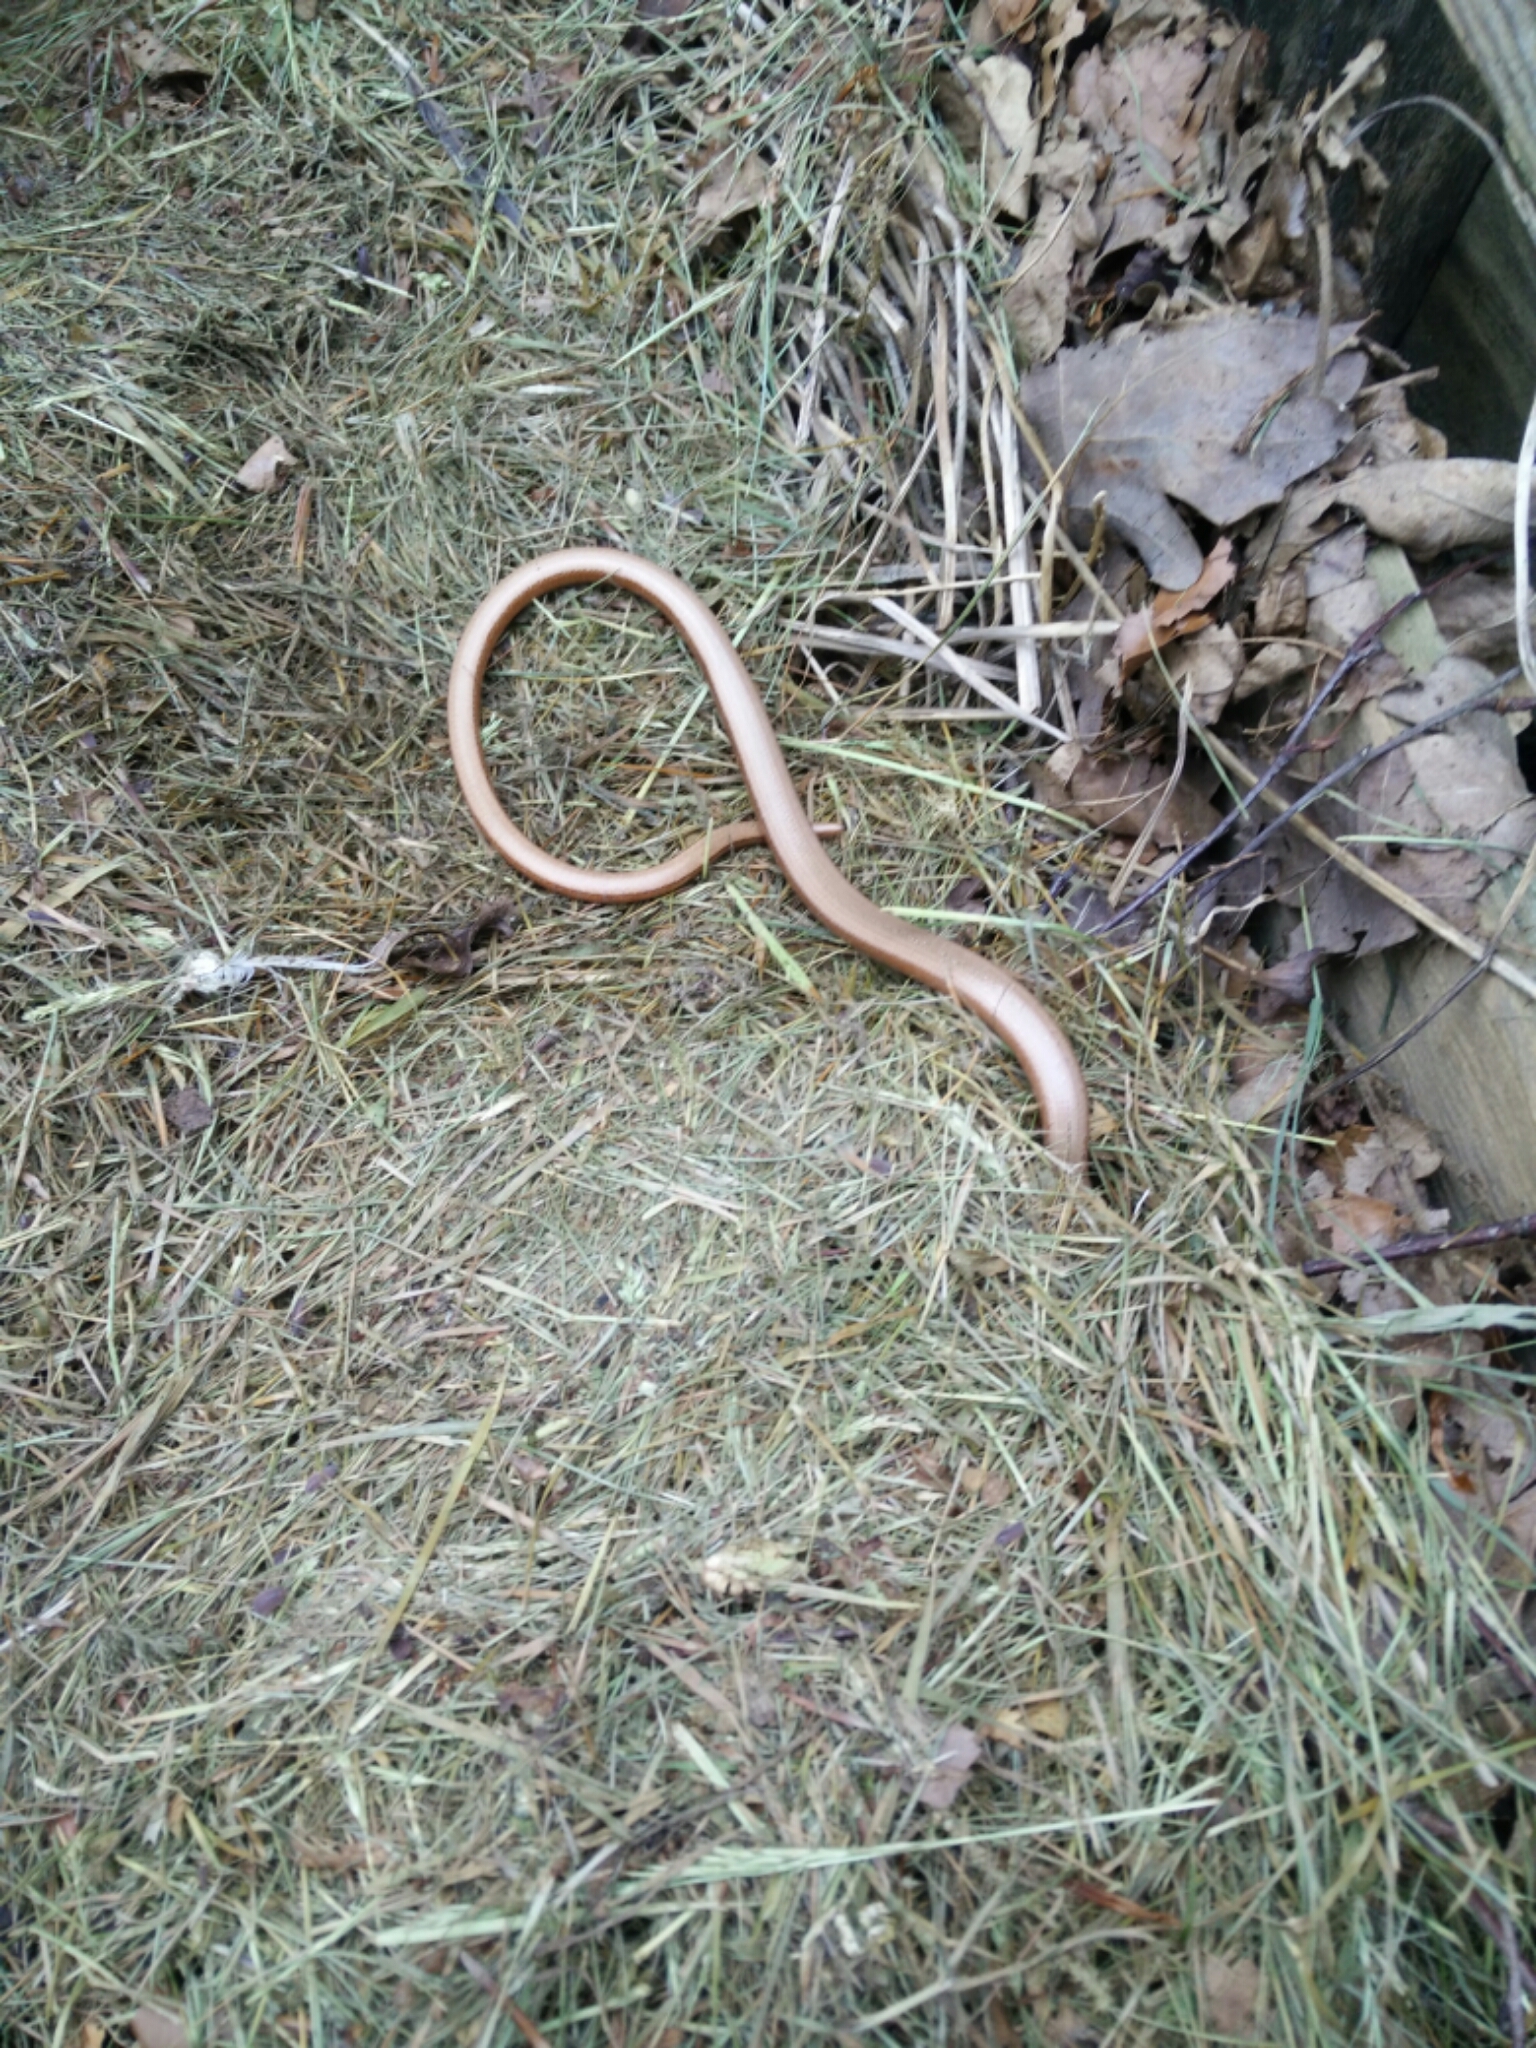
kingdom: Animalia
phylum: Chordata
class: Squamata
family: Anguidae
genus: Anguis
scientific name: Anguis fragilis
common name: Slow worm
